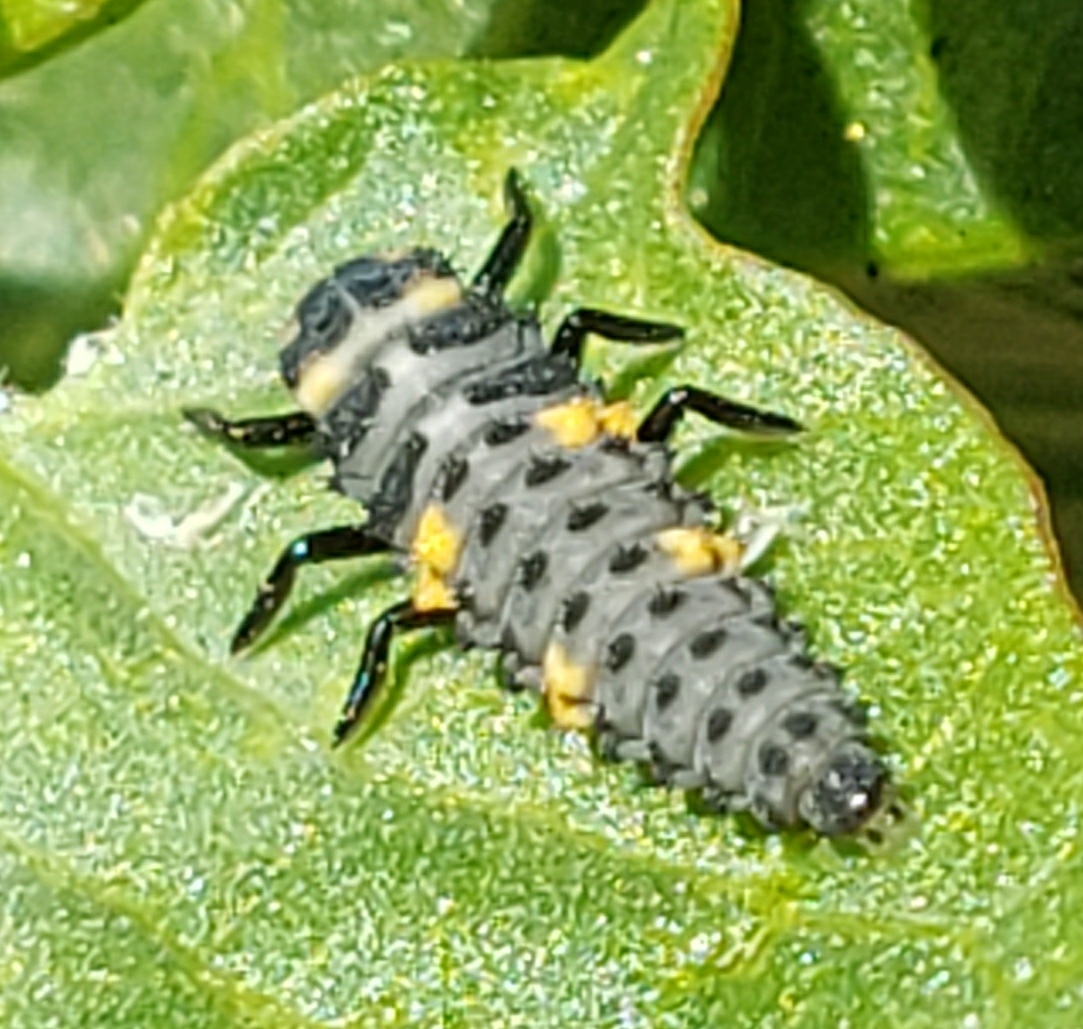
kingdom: Animalia
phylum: Arthropoda
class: Insecta
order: Coleoptera
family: Coccinellidae
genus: Coccinella
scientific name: Coccinella septempunctata
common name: Sevenspotted lady beetle
